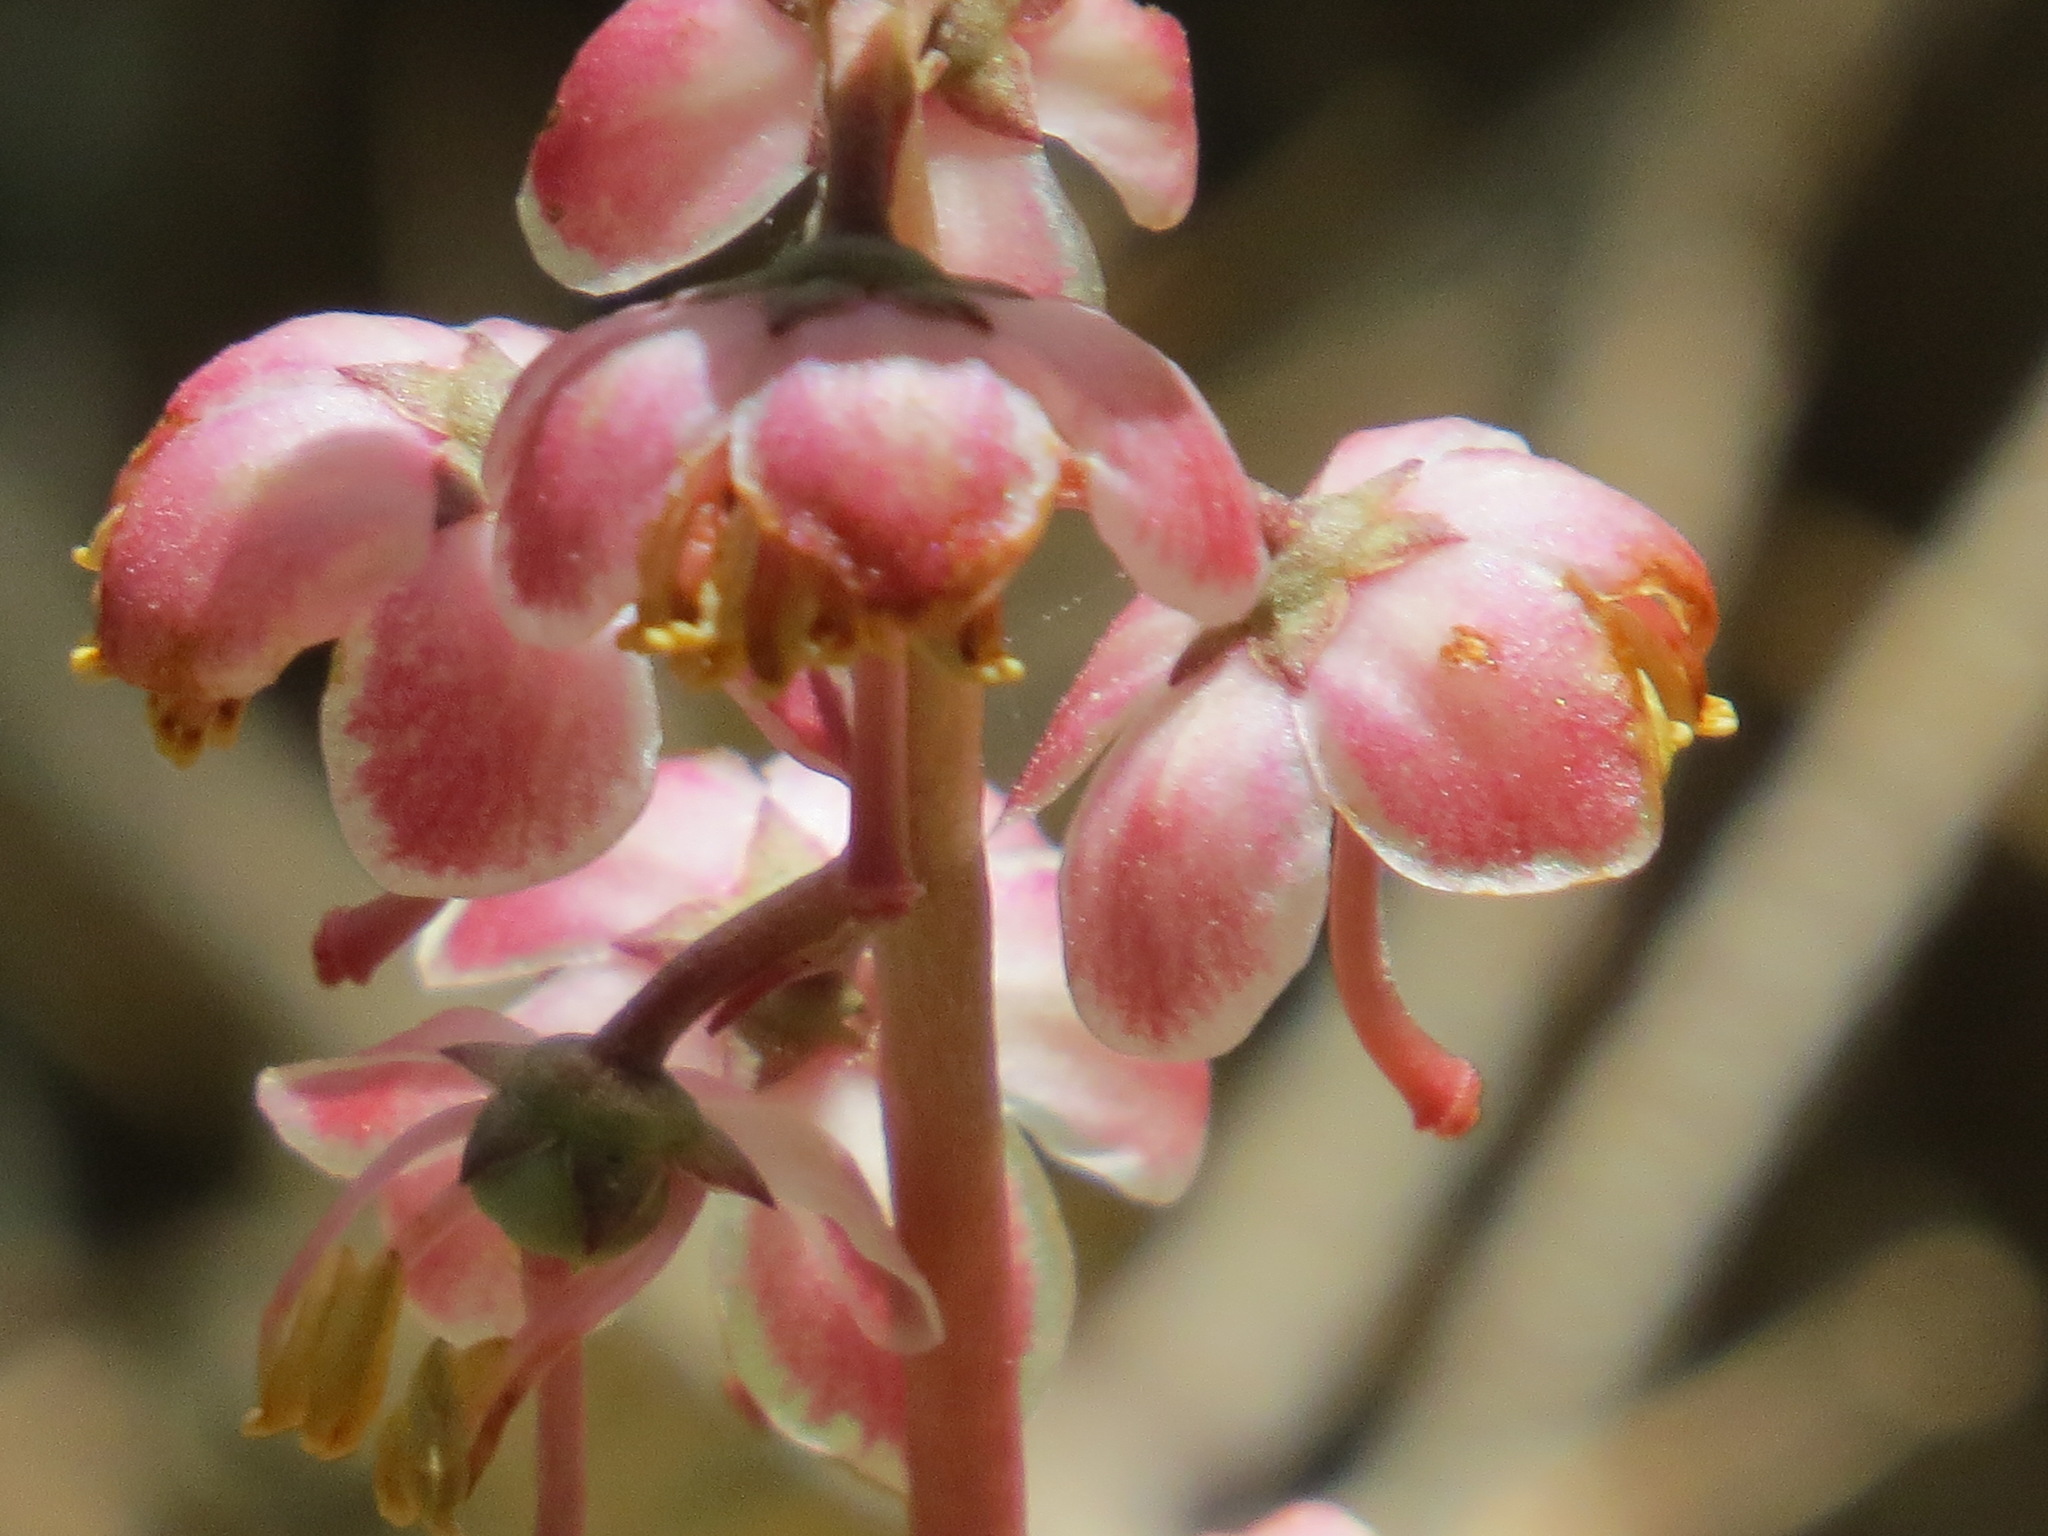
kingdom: Plantae
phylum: Tracheophyta
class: Magnoliopsida
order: Ericales
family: Ericaceae
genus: Pyrola
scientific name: Pyrola aphylla
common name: Leafless wintergreen
